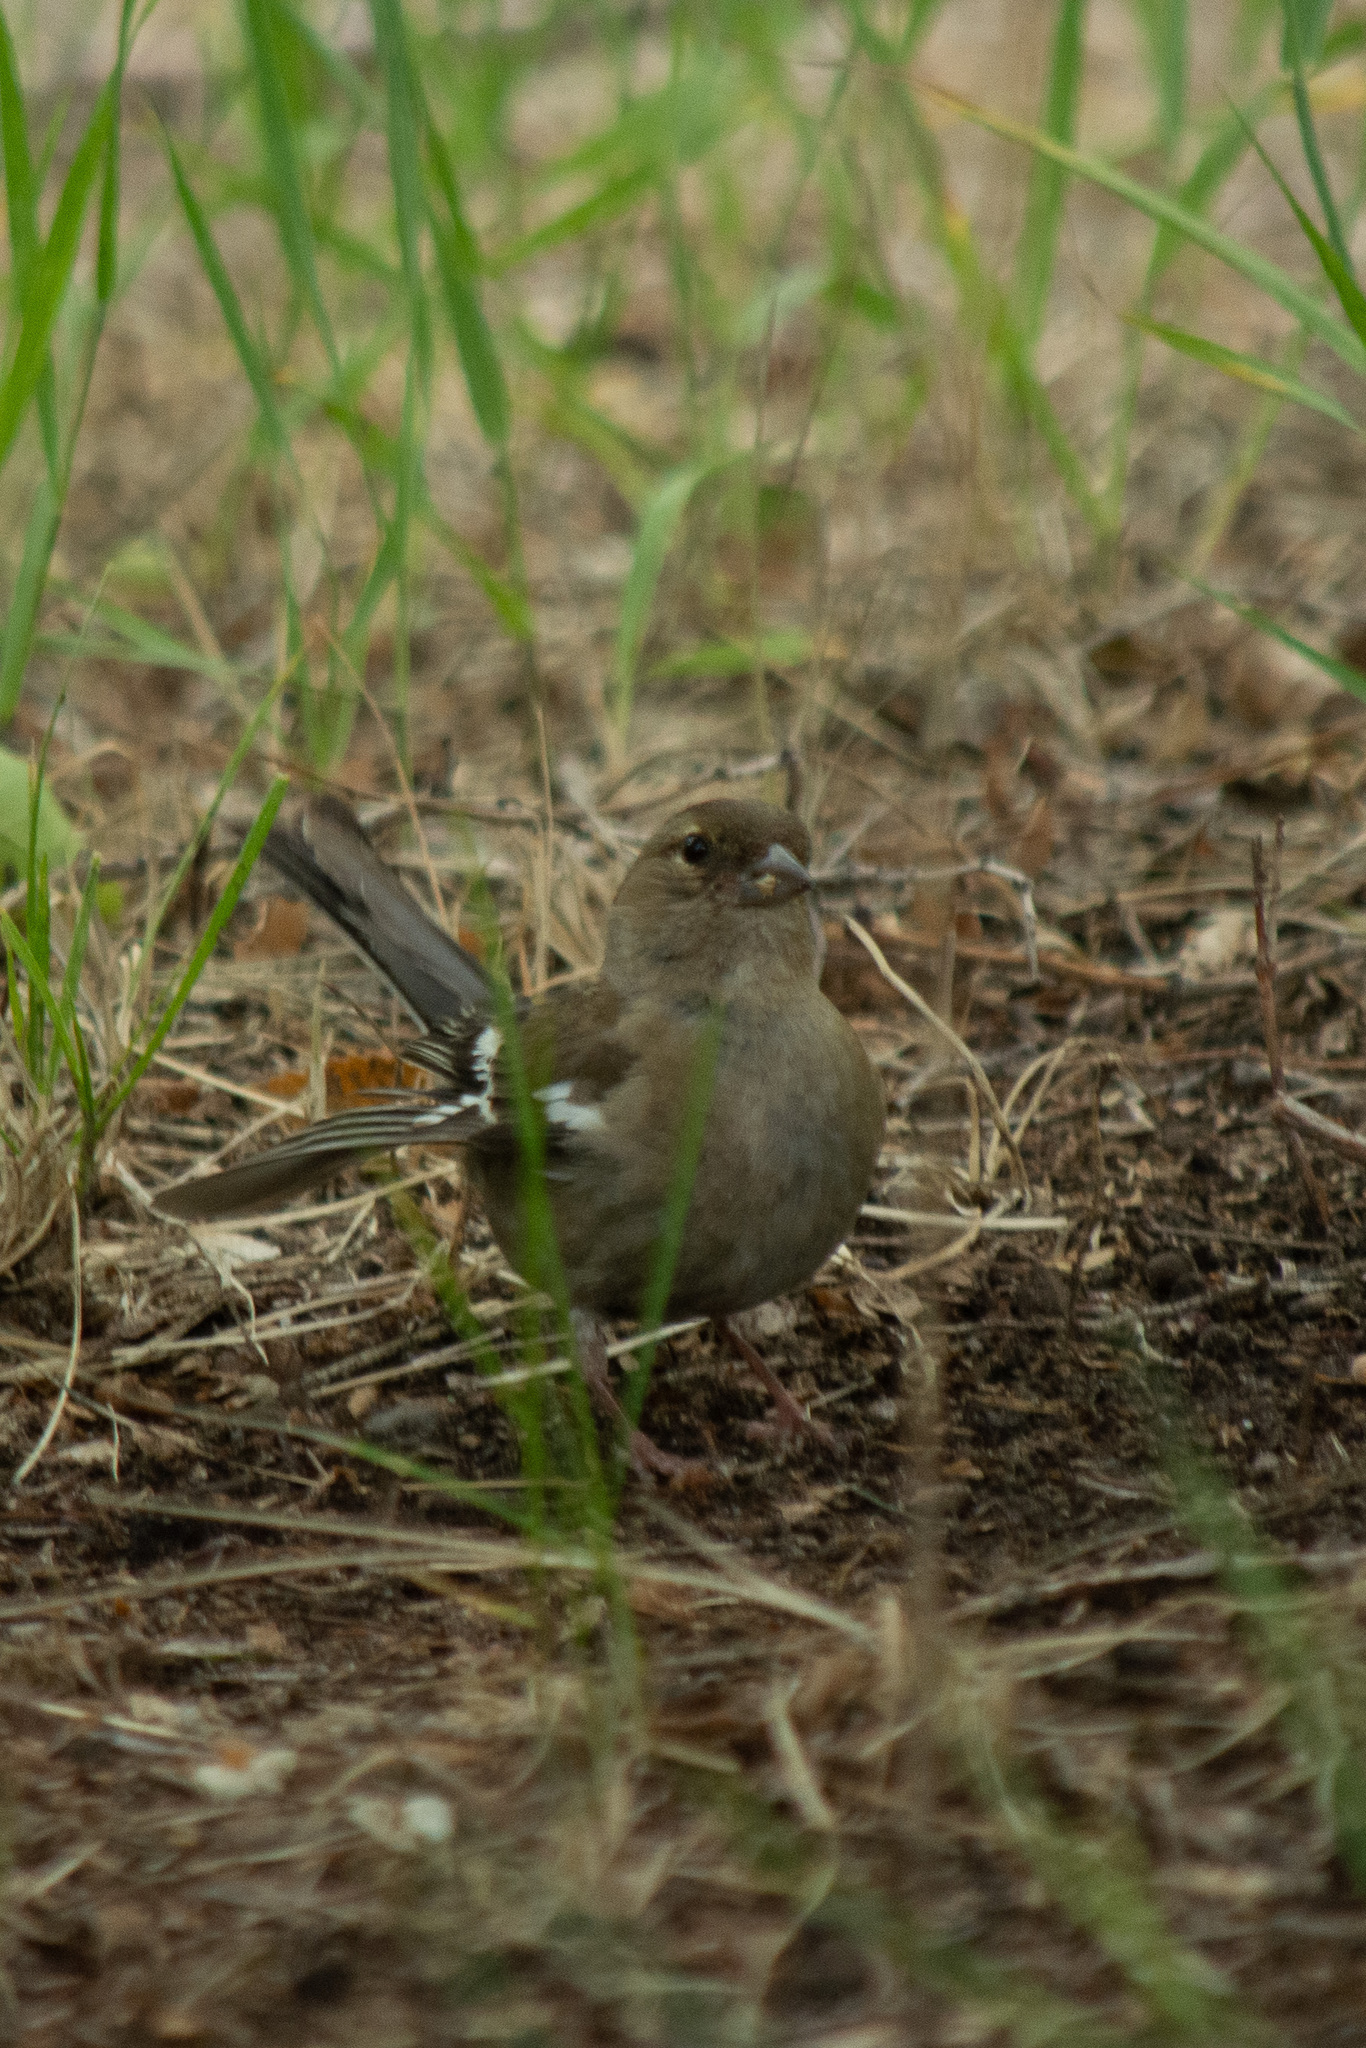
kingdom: Animalia
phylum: Chordata
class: Aves
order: Passeriformes
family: Fringillidae
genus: Fringilla
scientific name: Fringilla coelebs
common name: Common chaffinch
